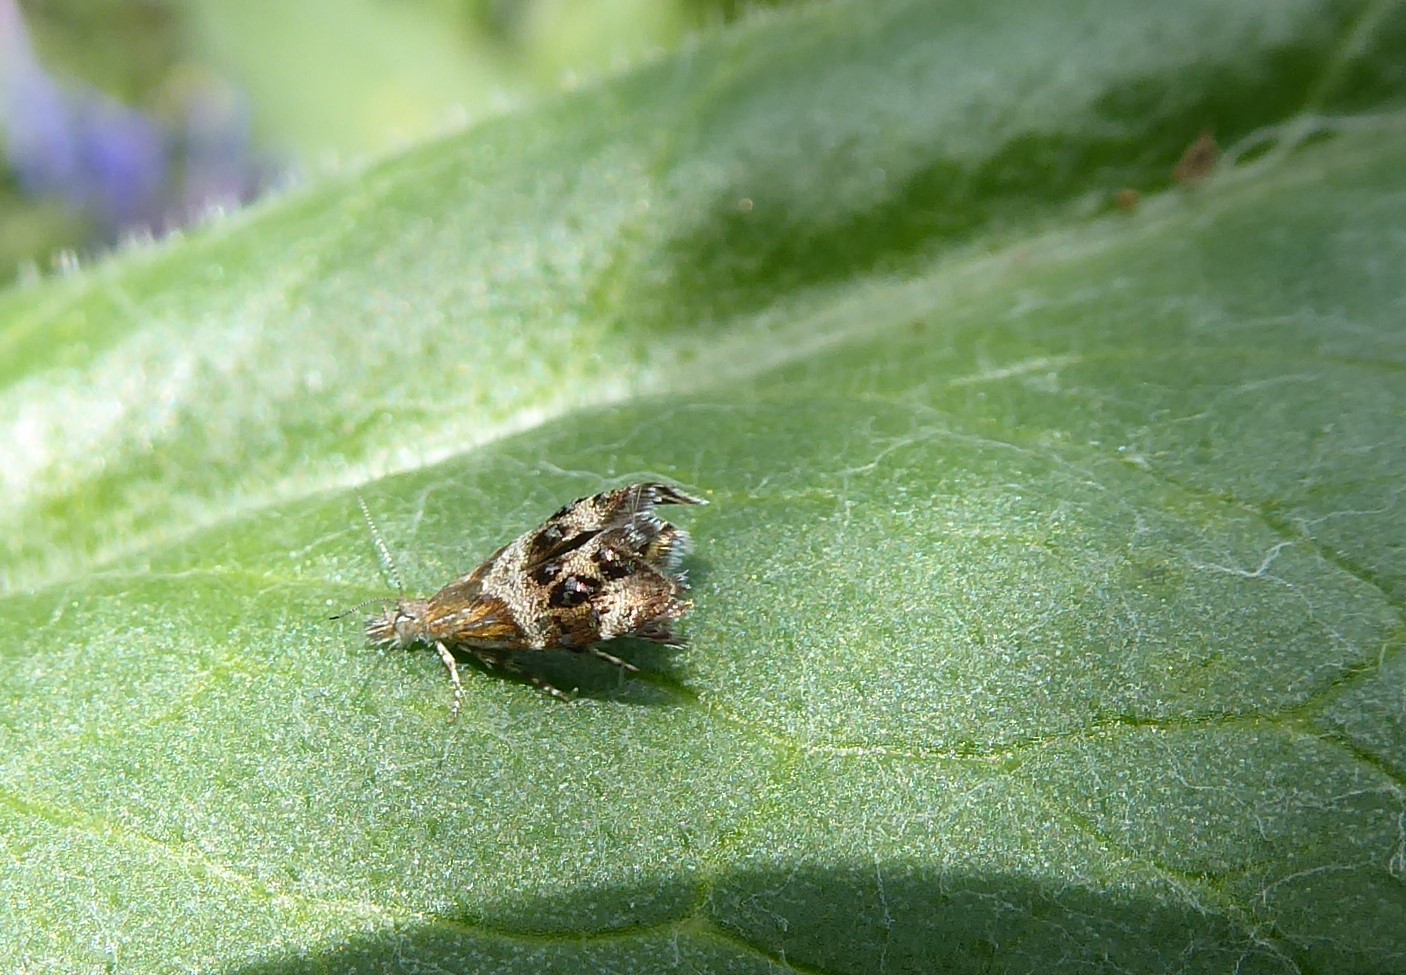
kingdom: Animalia
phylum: Arthropoda
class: Insecta
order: Lepidoptera
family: Choreutidae
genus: Tebenna
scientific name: Tebenna micalis
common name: Vagrant twitcher
